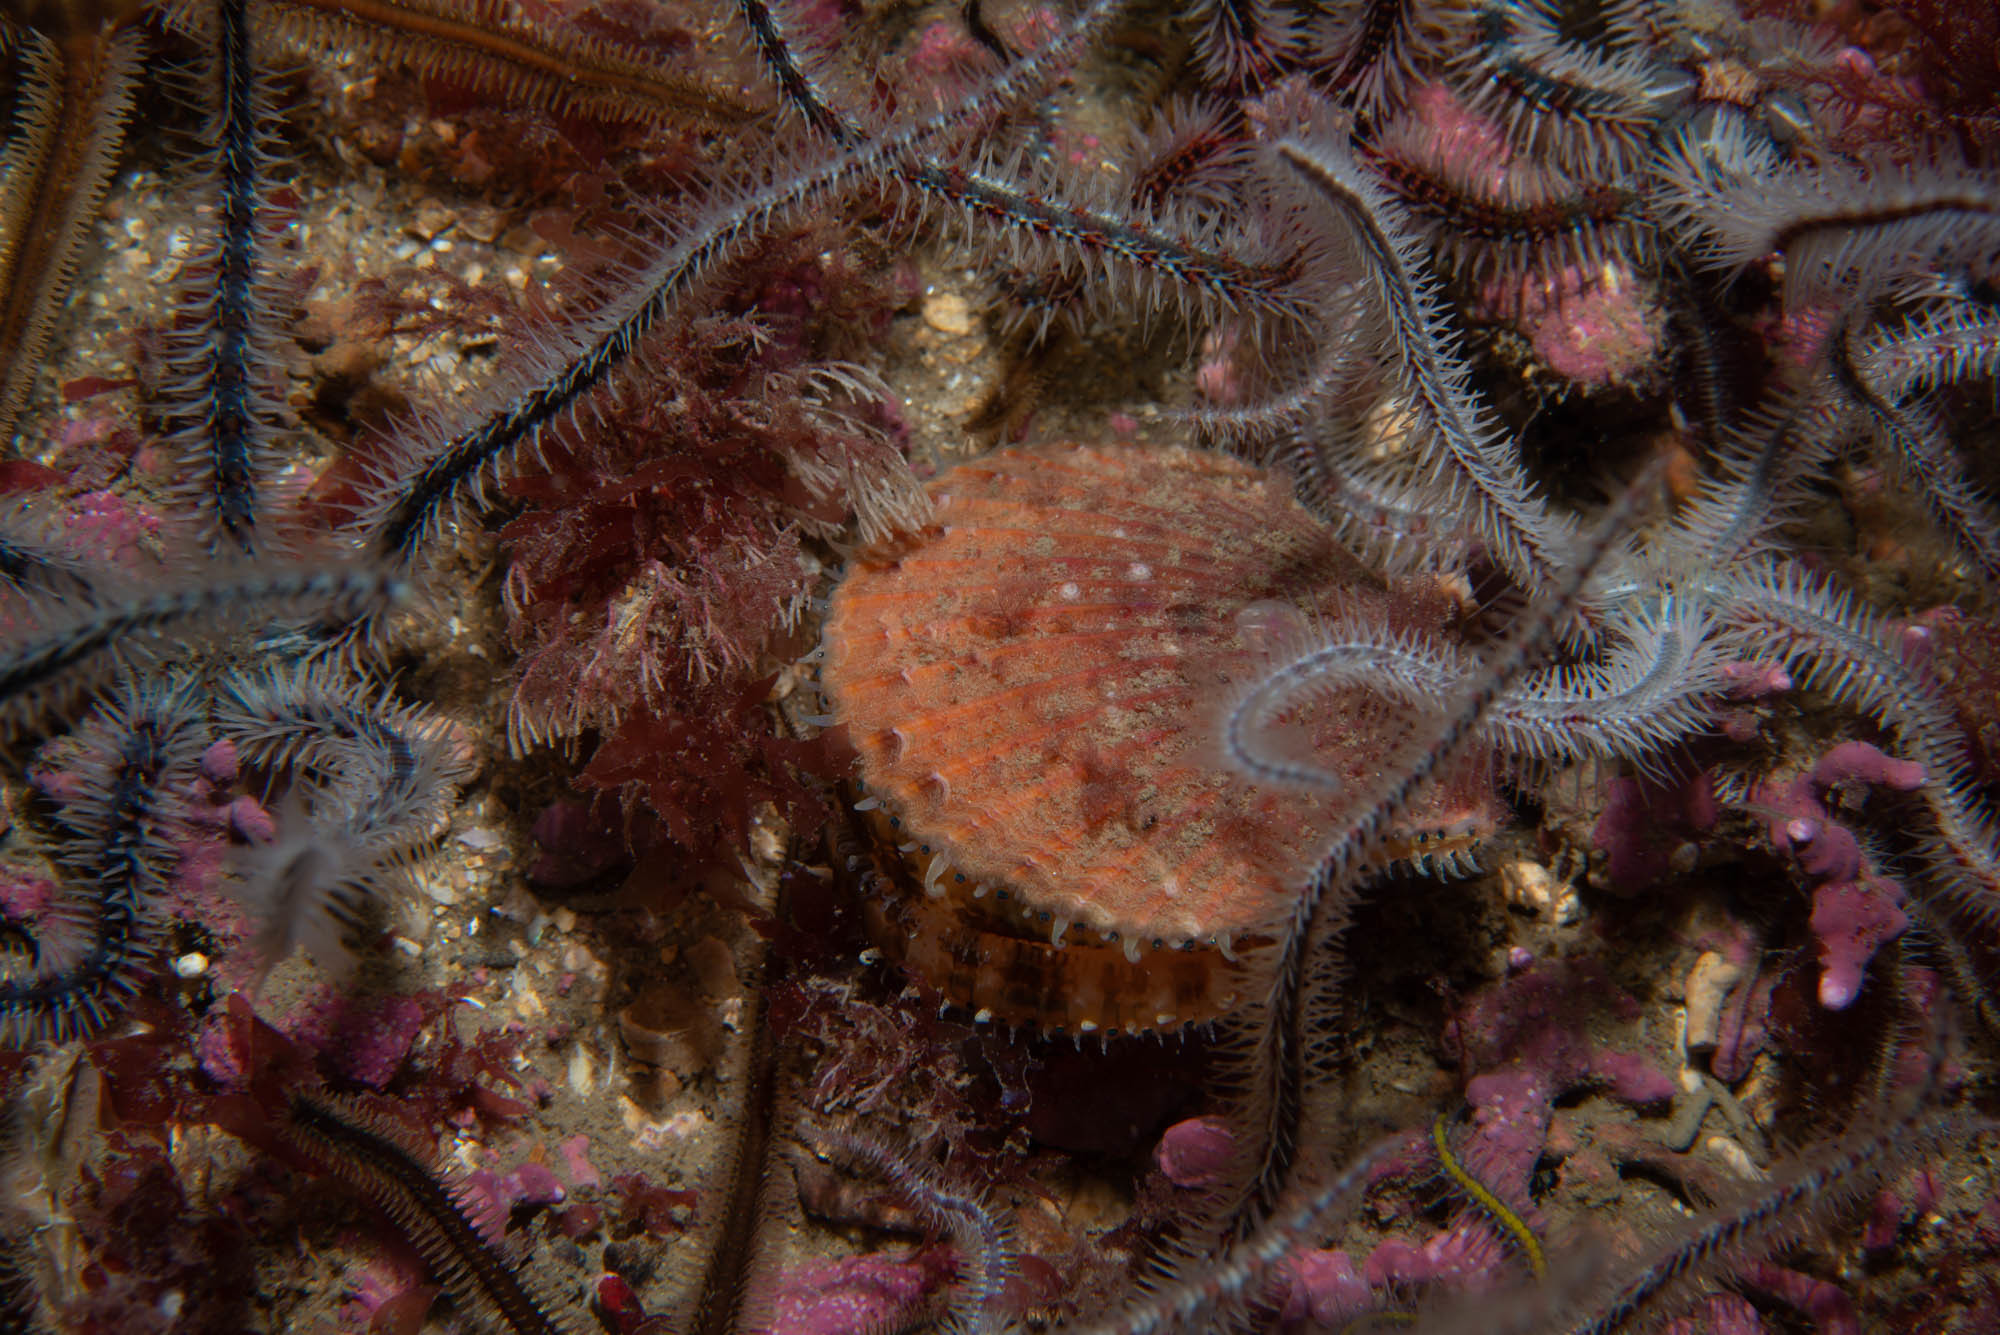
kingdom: Animalia
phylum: Mollusca
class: Bivalvia
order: Pectinida
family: Pectinidae
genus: Aequipecten
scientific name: Aequipecten opercularis
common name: Queen scallop
